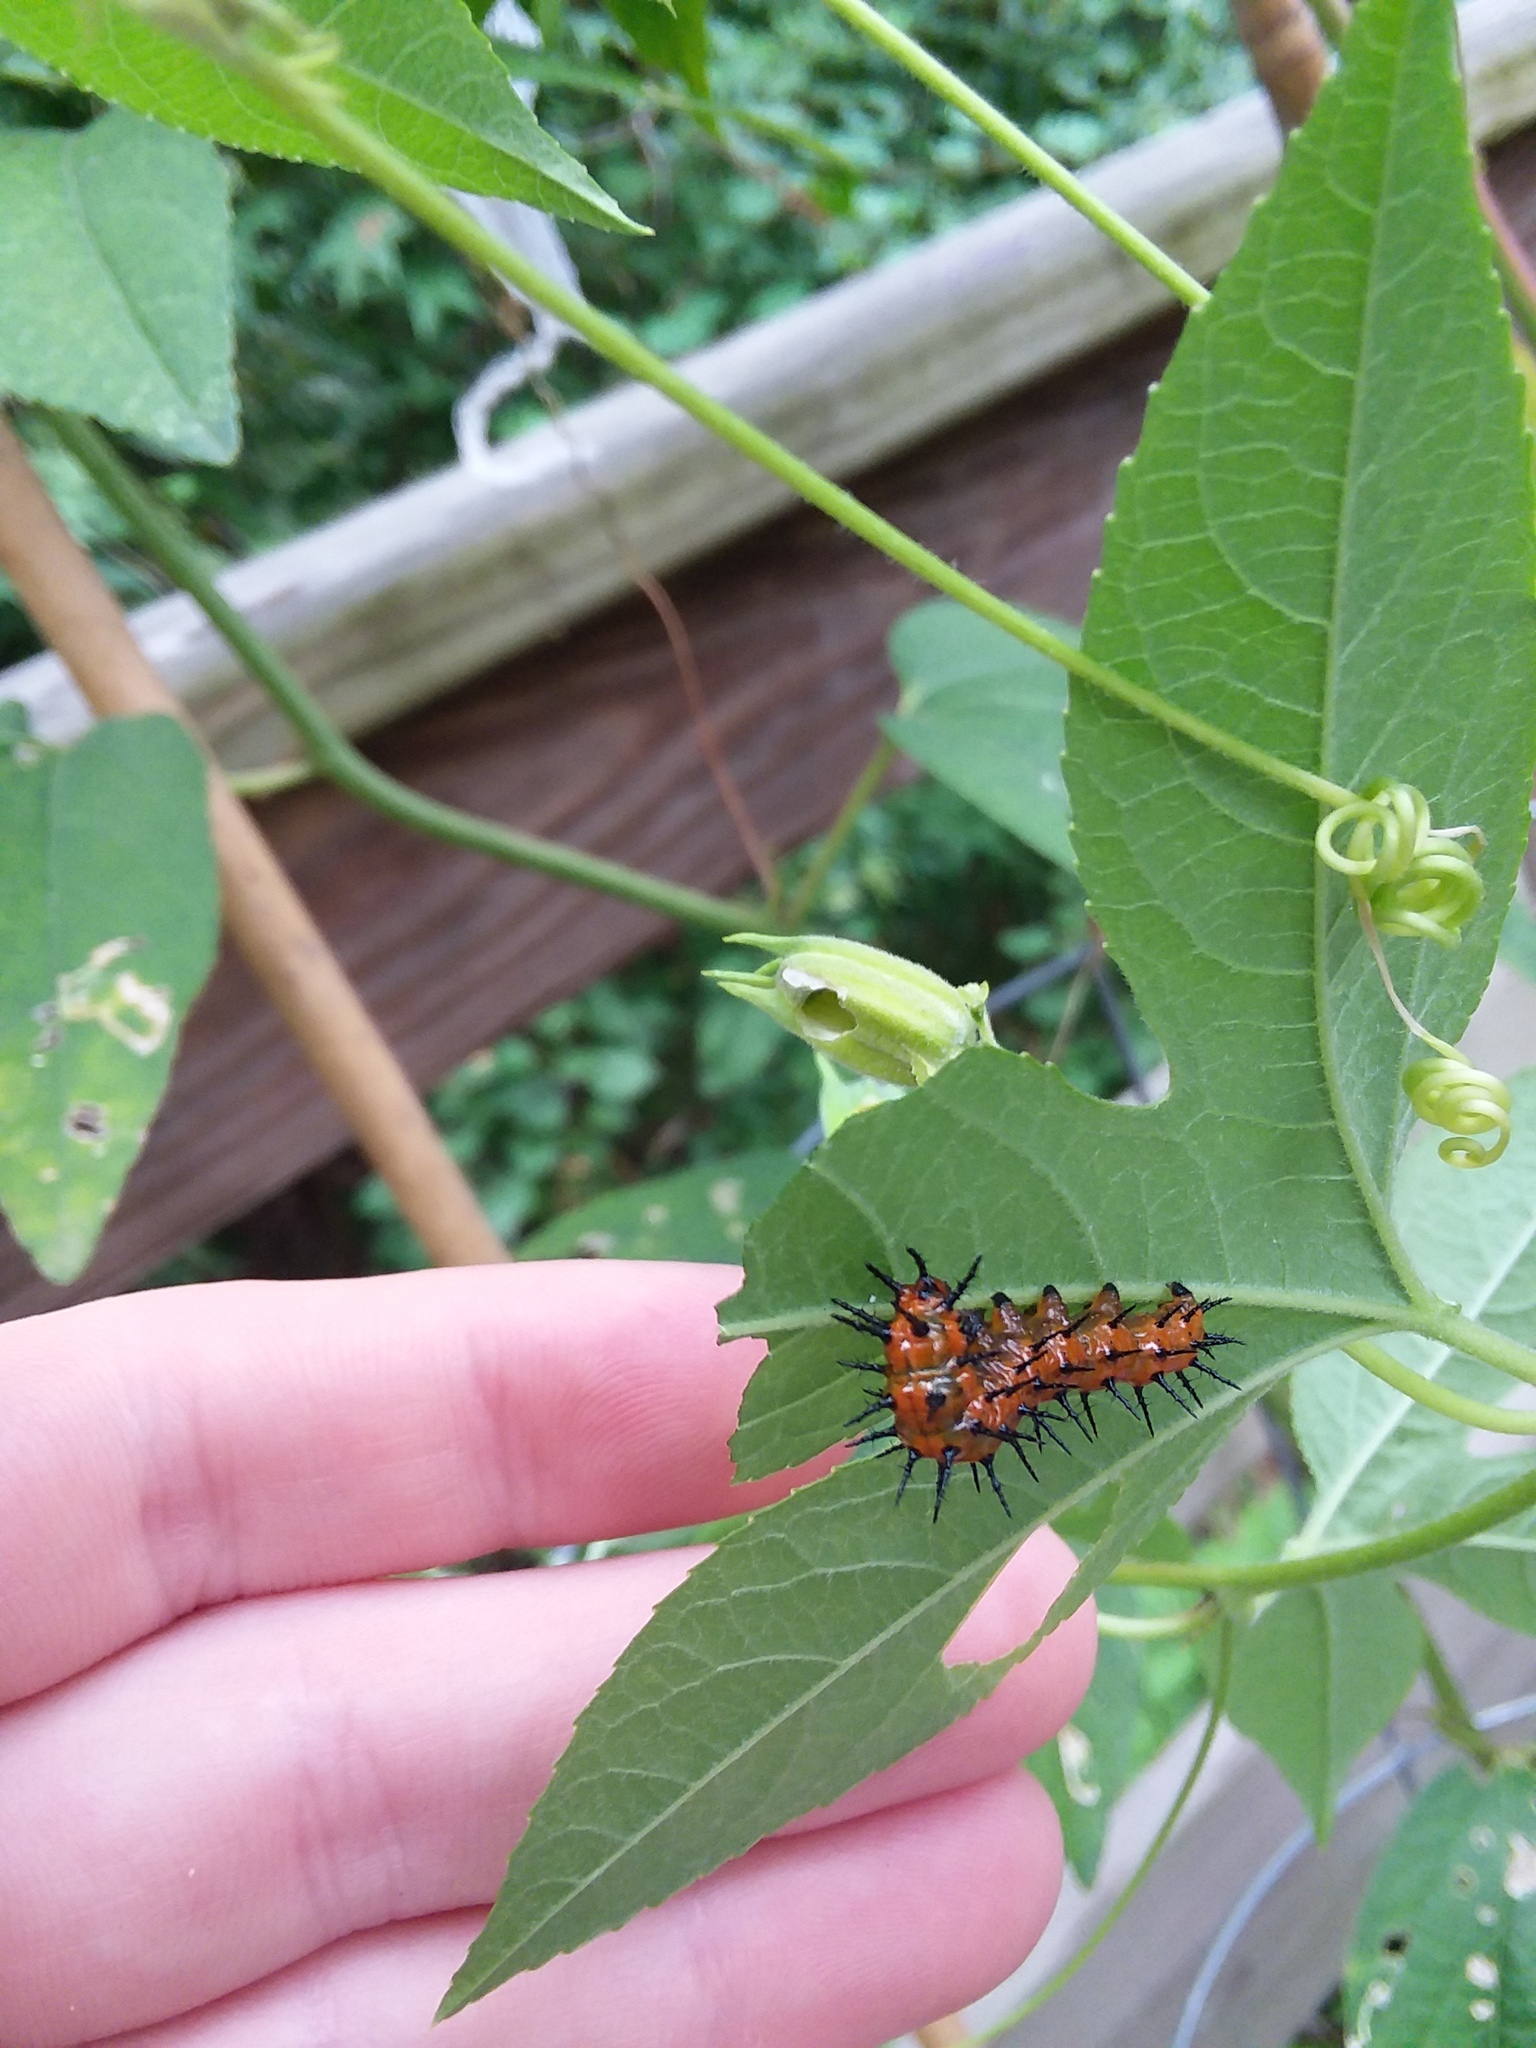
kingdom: Animalia
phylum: Arthropoda
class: Insecta
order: Lepidoptera
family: Nymphalidae
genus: Dione
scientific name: Dione vanillae
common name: Gulf fritillary
